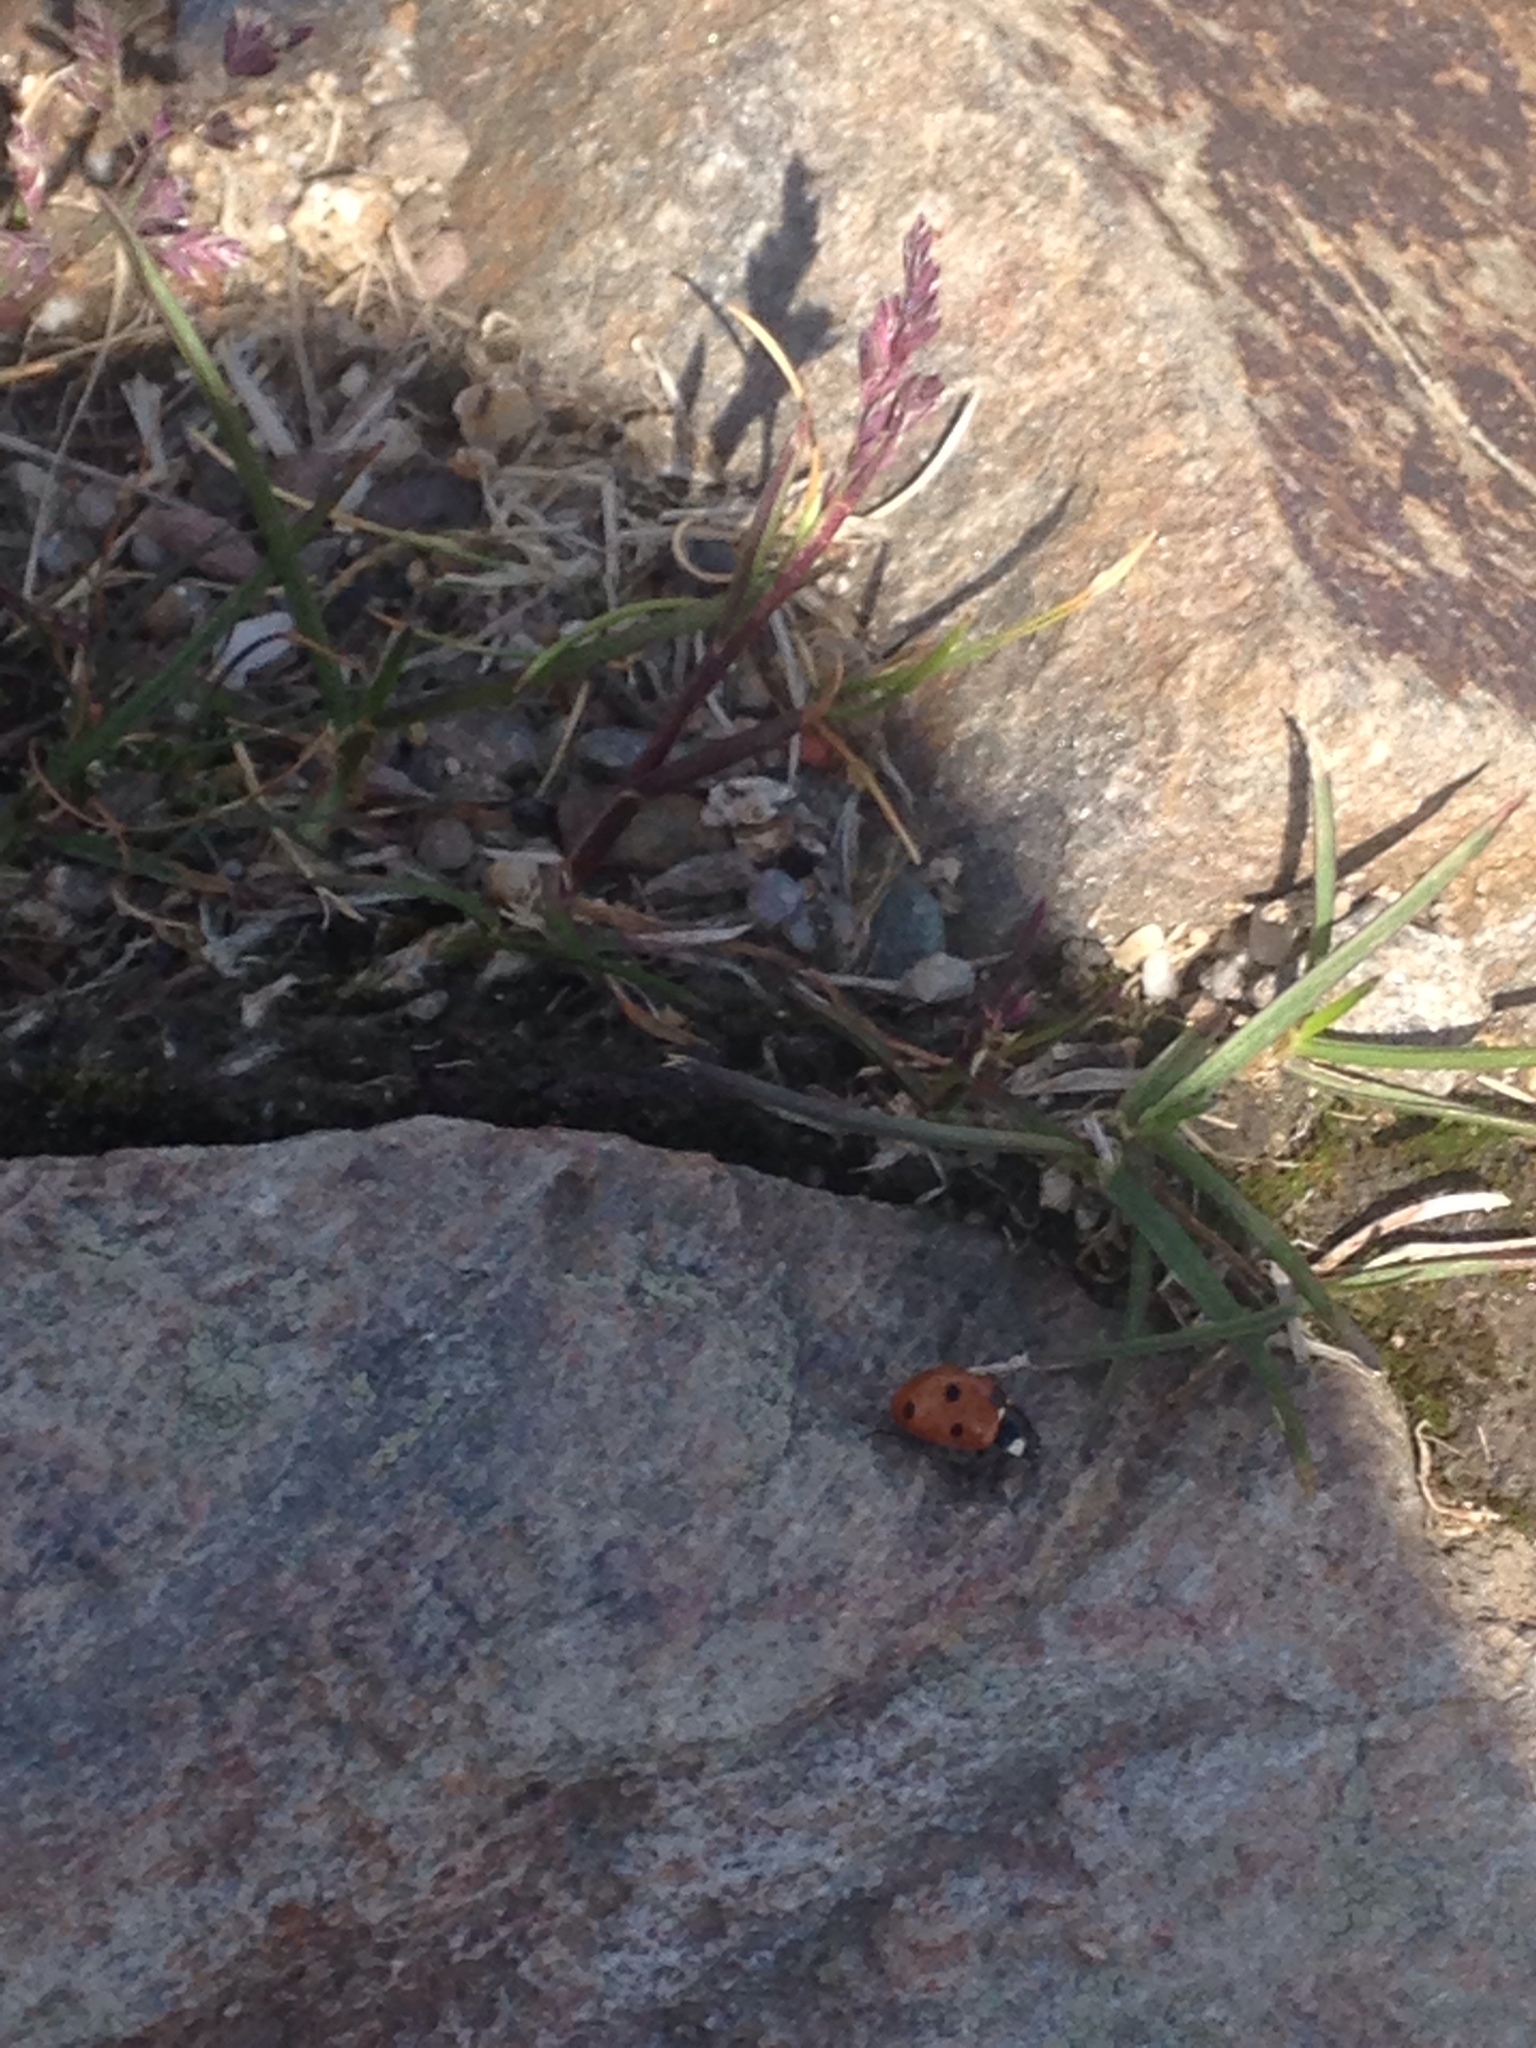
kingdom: Animalia
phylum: Arthropoda
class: Insecta
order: Coleoptera
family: Coccinellidae
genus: Coccinella
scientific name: Coccinella septempunctata
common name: Sevenspotted lady beetle
